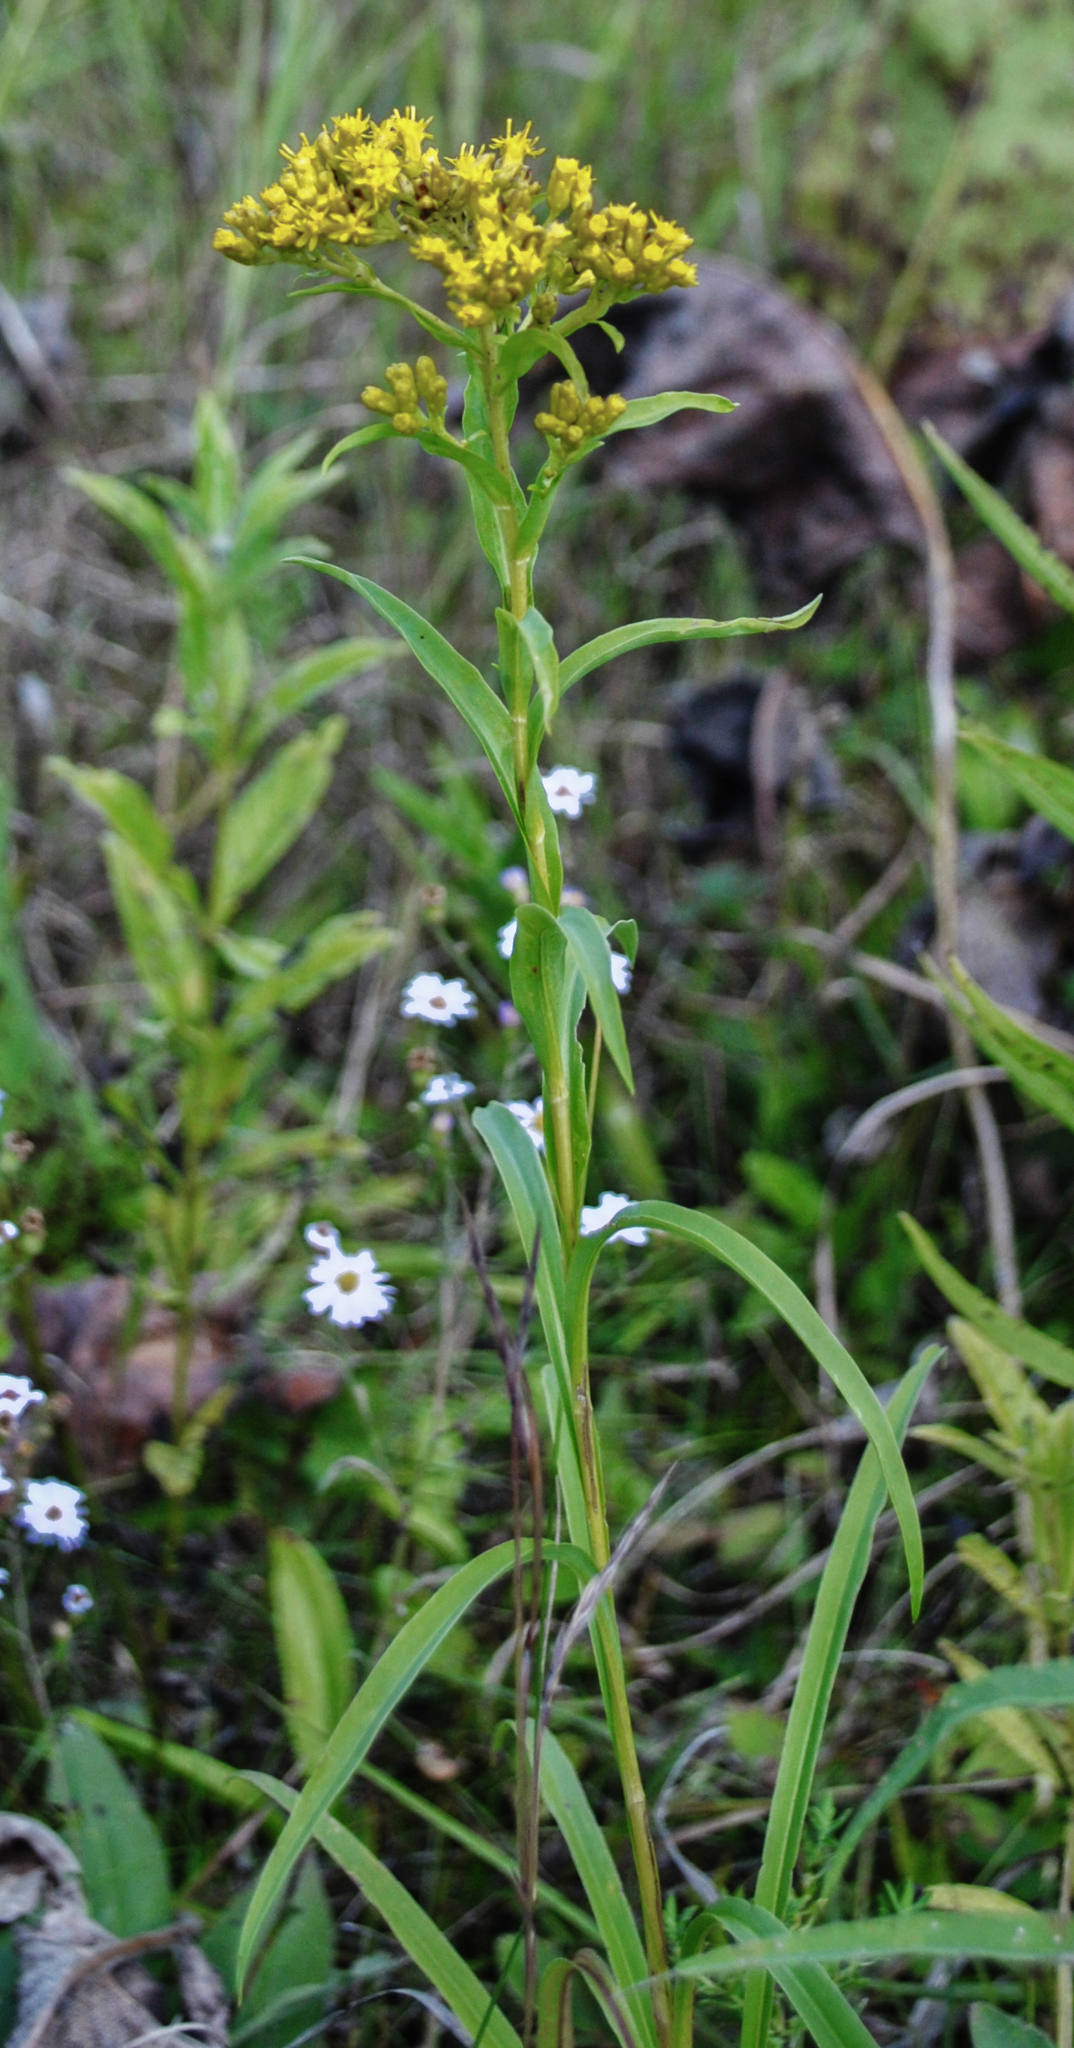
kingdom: Plantae
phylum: Tracheophyta
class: Magnoliopsida
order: Asterales
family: Asteraceae
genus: Solidago
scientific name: Solidago riddellii
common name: Riddell's goldenrod
